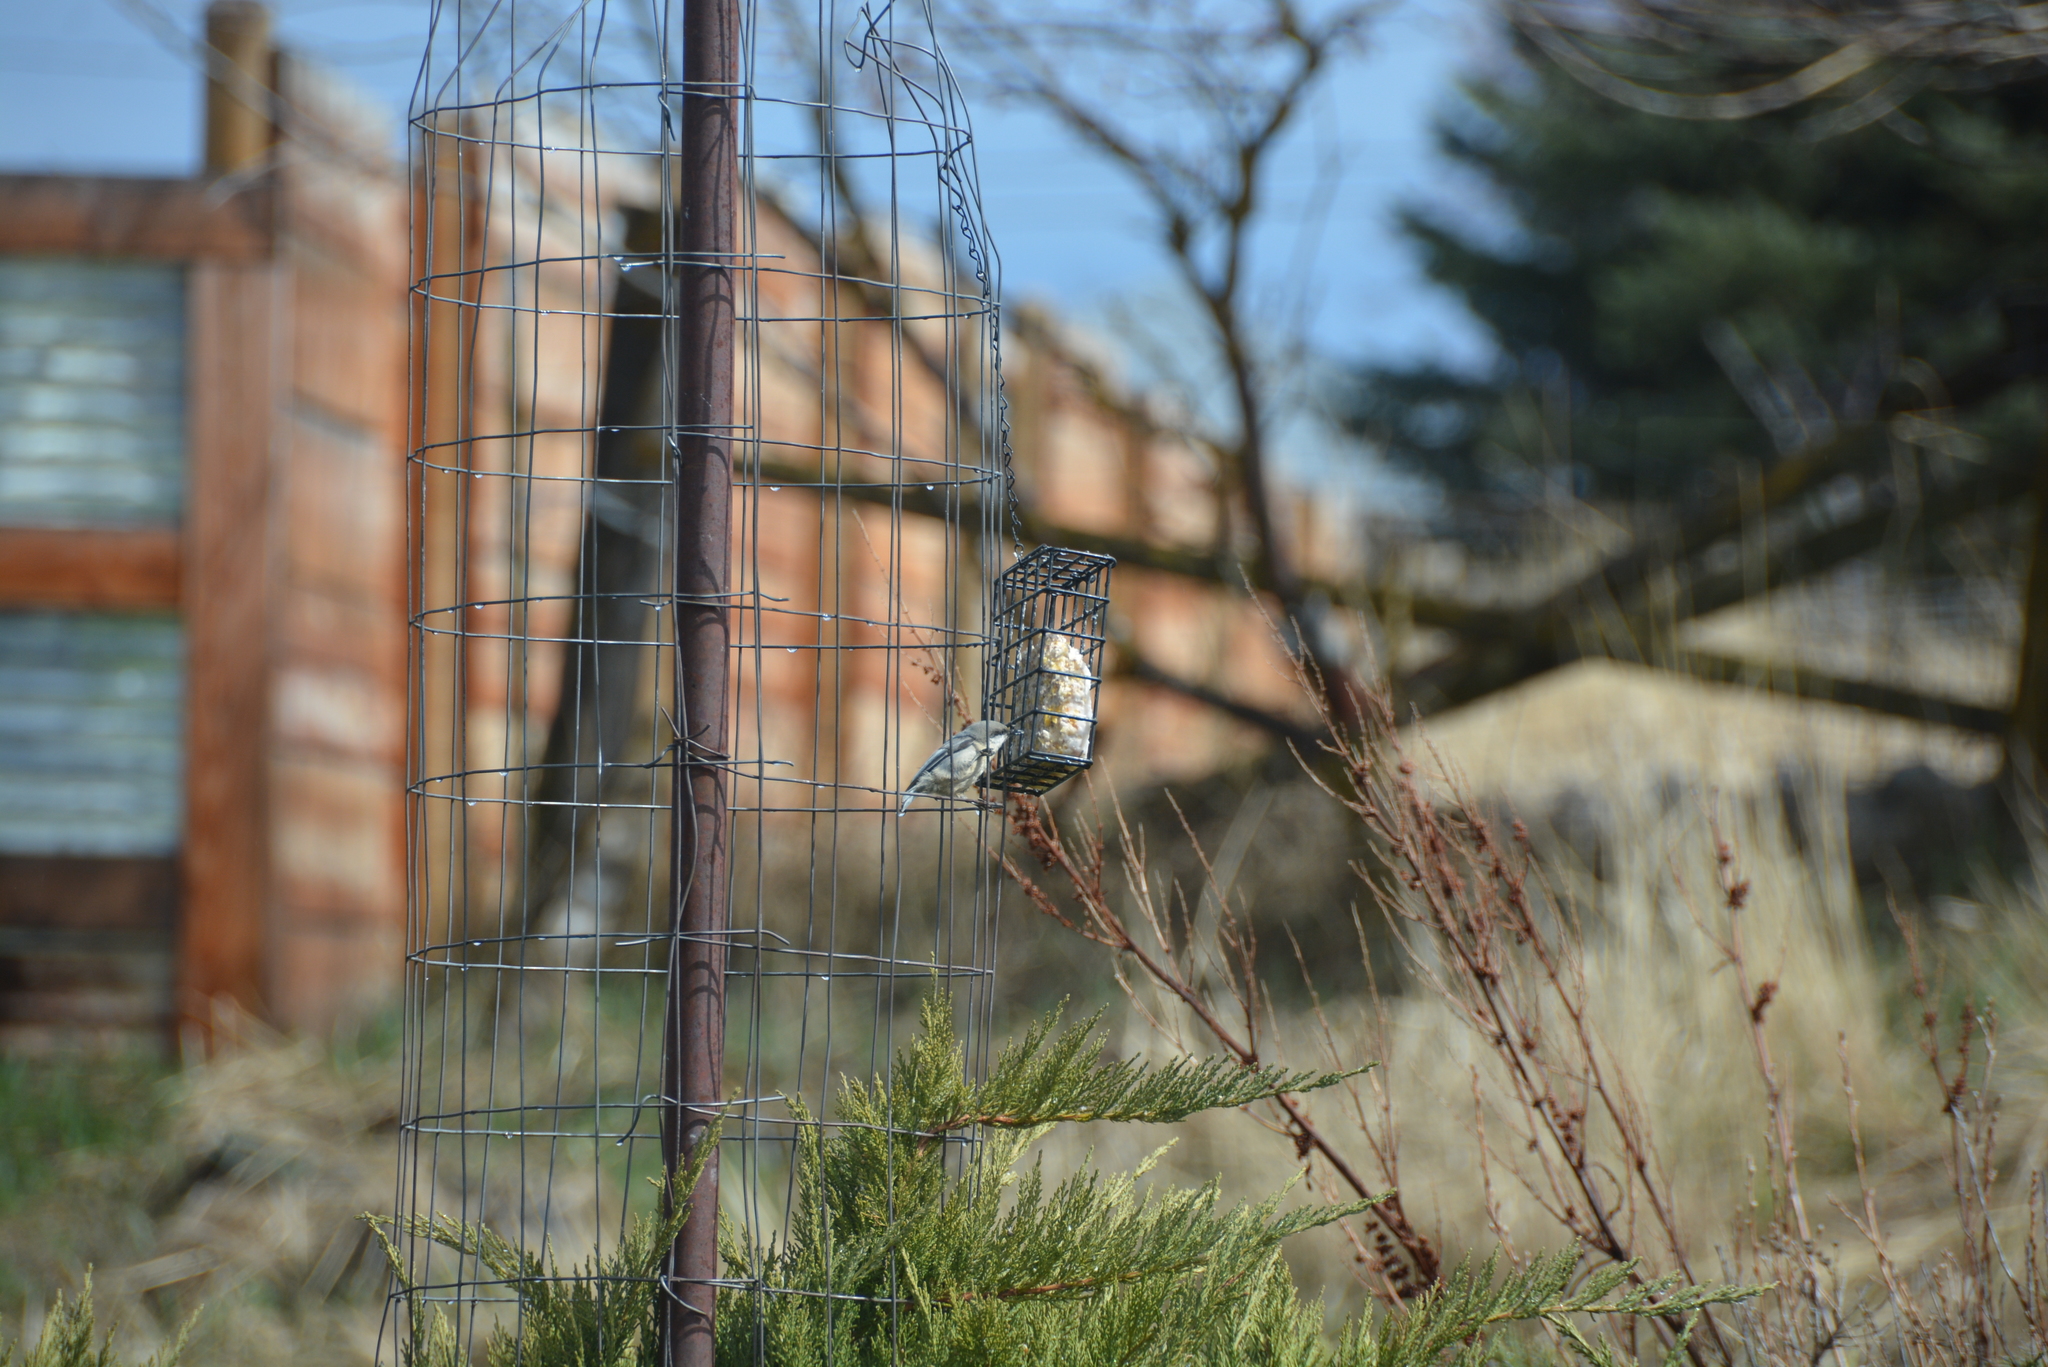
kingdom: Animalia
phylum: Chordata
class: Aves
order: Passeriformes
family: Sittidae
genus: Sitta
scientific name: Sitta pygmaea
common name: Pygmy nuthatch
